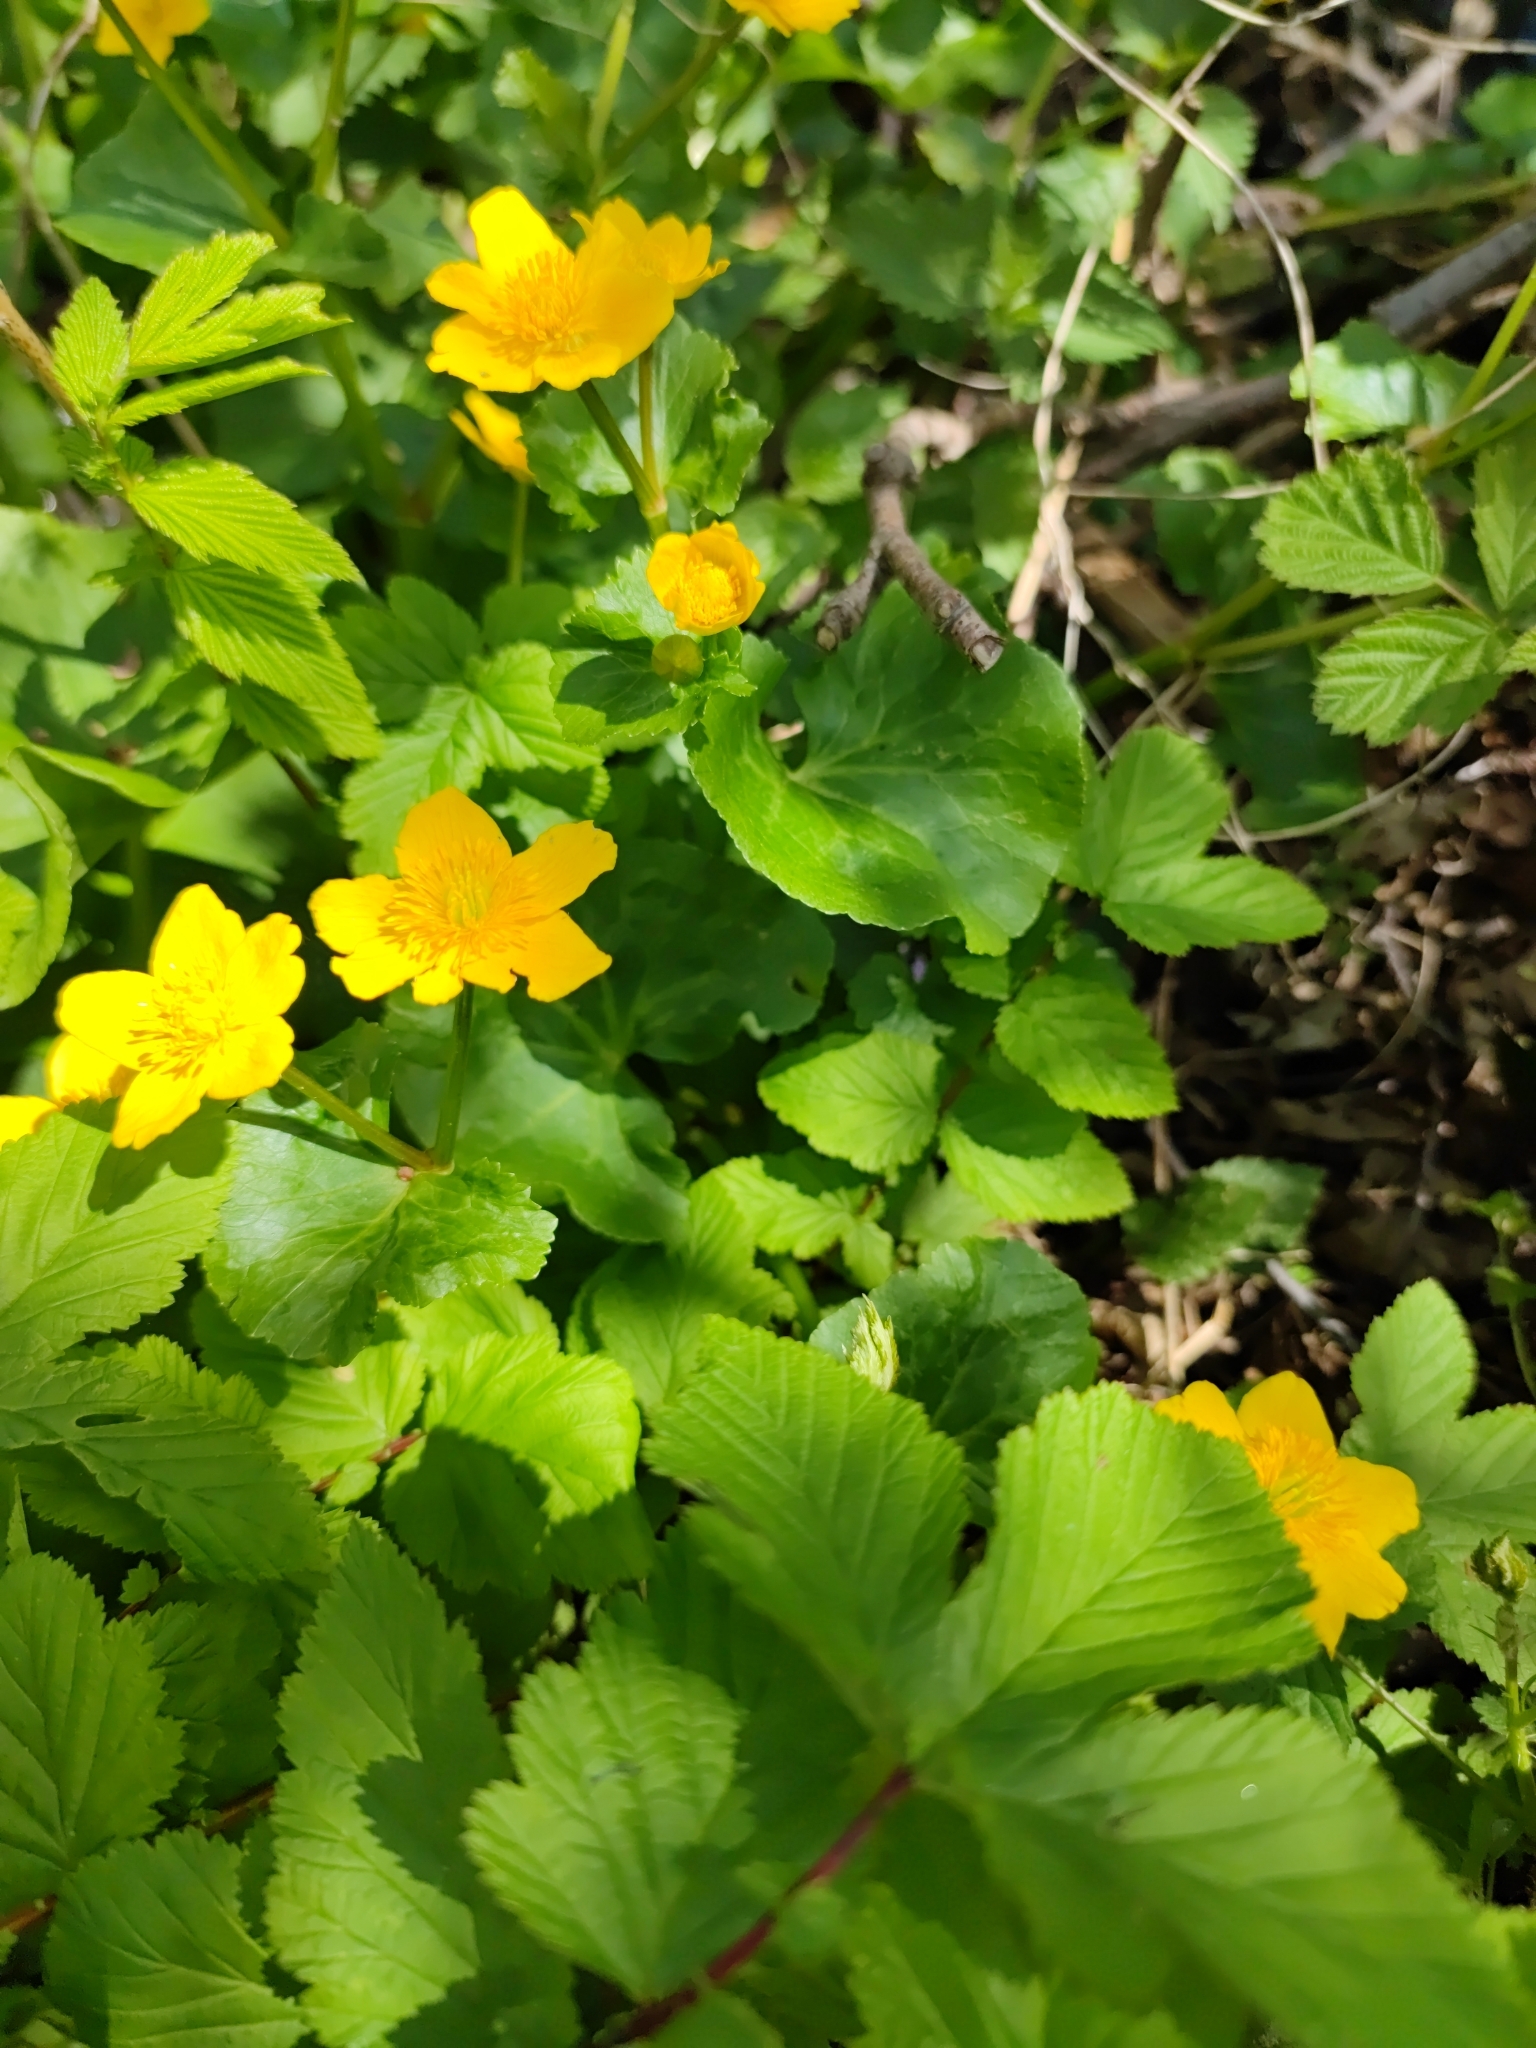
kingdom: Plantae
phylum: Tracheophyta
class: Magnoliopsida
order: Ranunculales
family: Ranunculaceae
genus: Caltha
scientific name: Caltha palustris
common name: Marsh marigold
